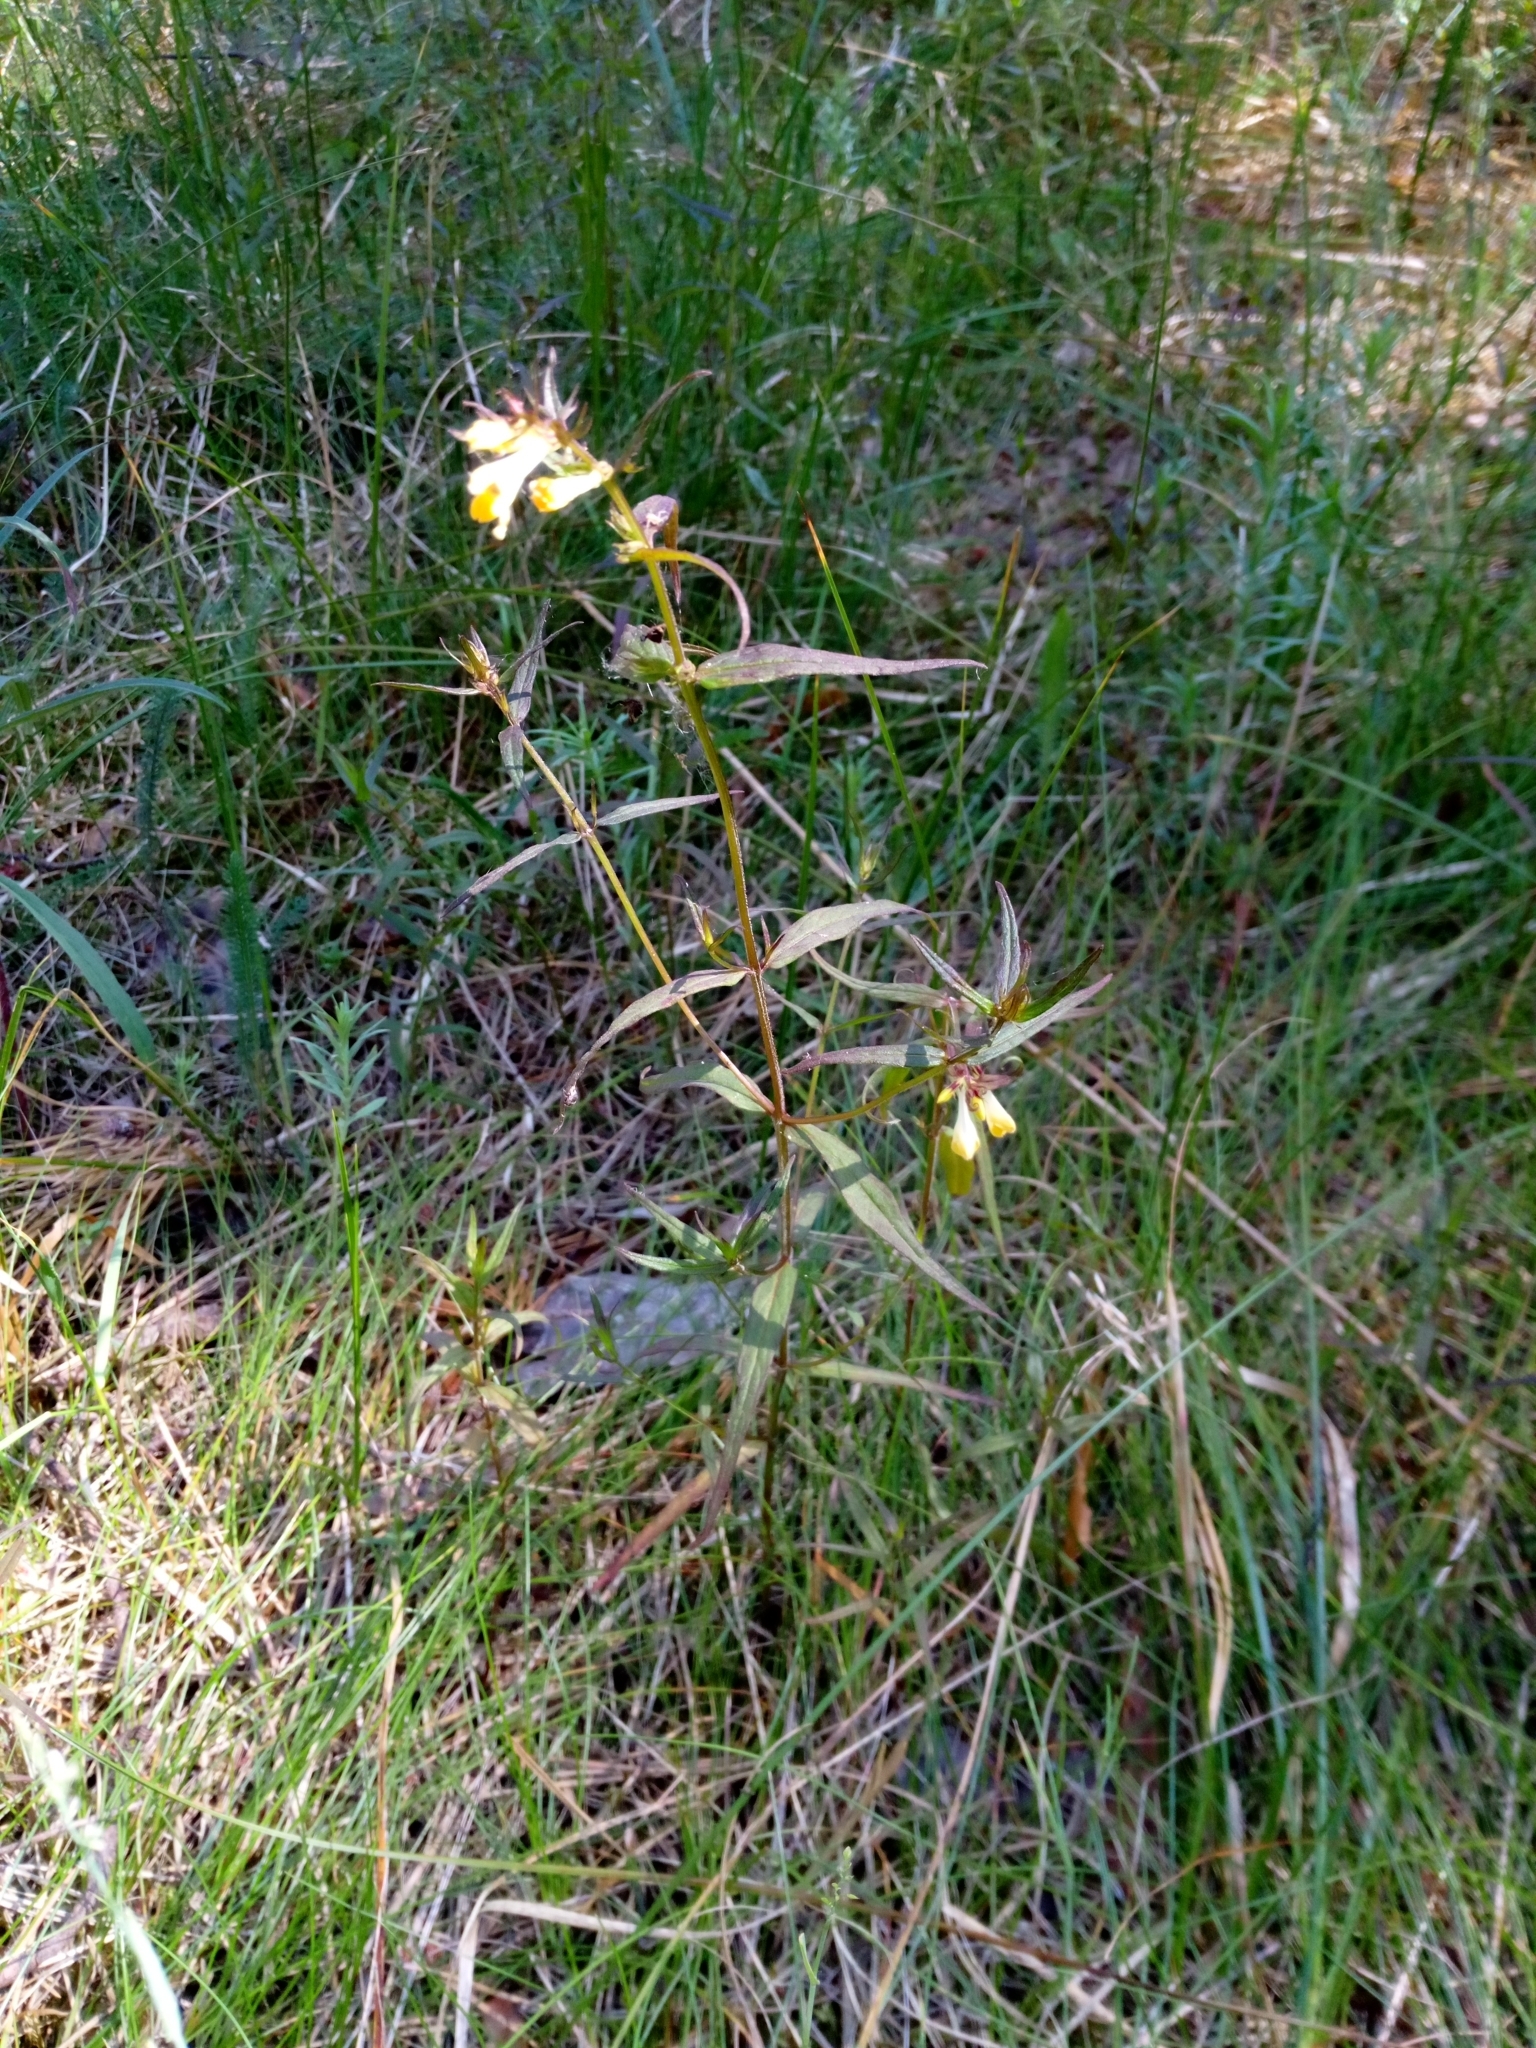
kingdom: Plantae
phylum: Tracheophyta
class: Magnoliopsida
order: Lamiales
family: Orobanchaceae
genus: Melampyrum
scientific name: Melampyrum pratense
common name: Common cow-wheat
